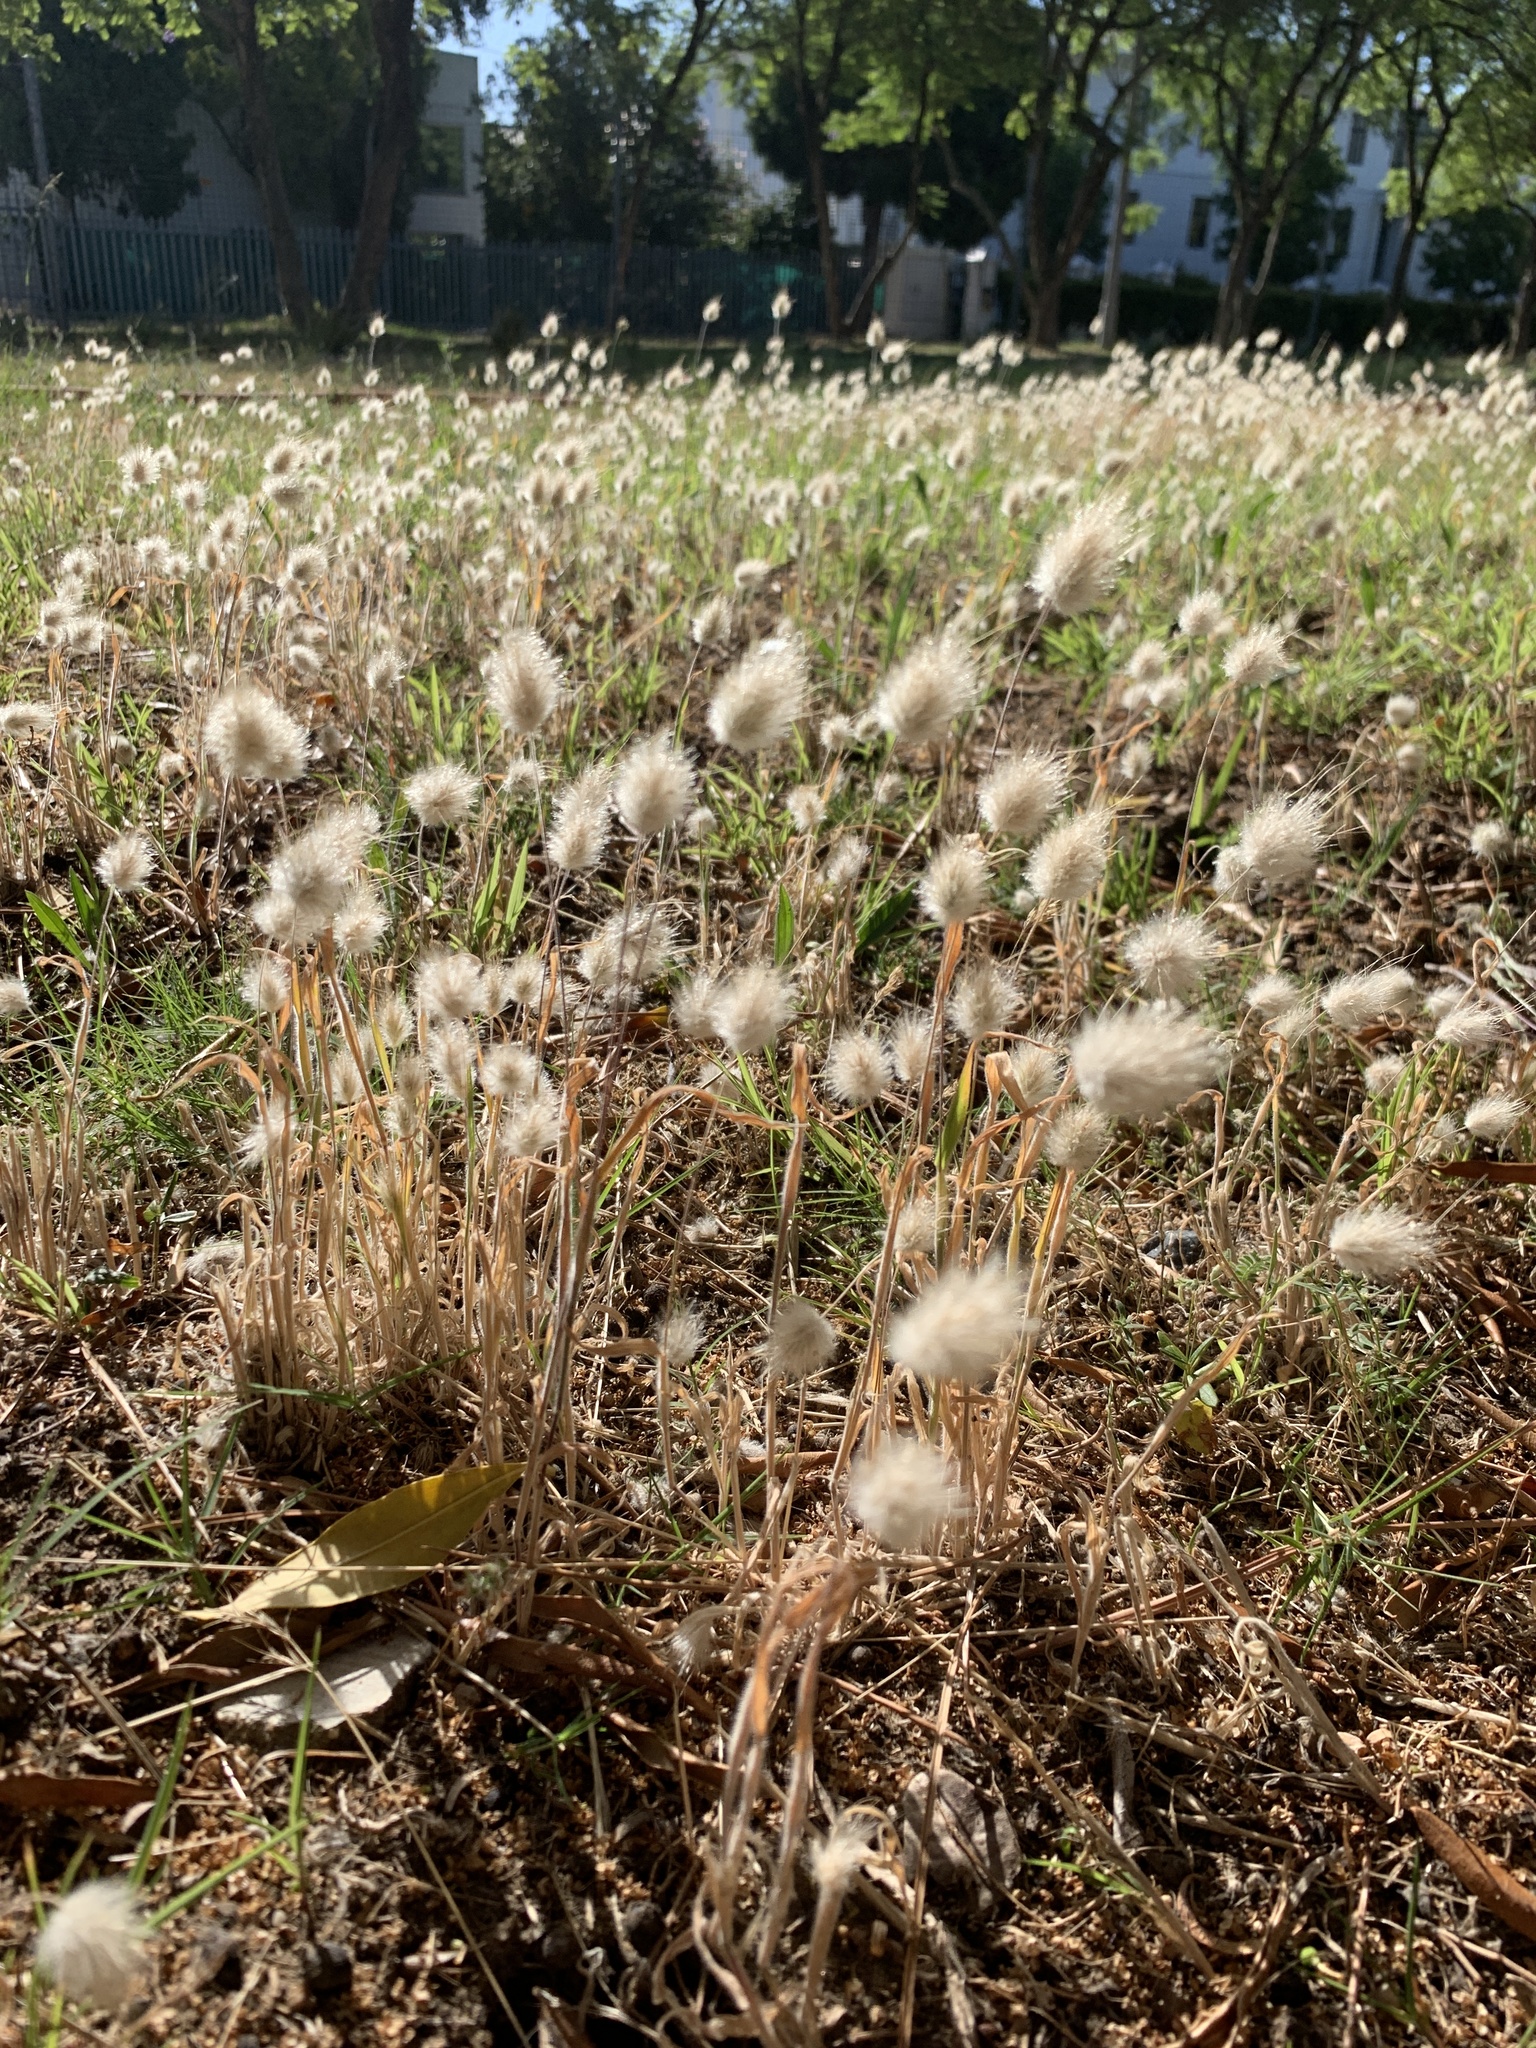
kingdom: Plantae
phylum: Tracheophyta
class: Liliopsida
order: Poales
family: Poaceae
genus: Lagurus
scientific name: Lagurus ovatus
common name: Hare's-tail
